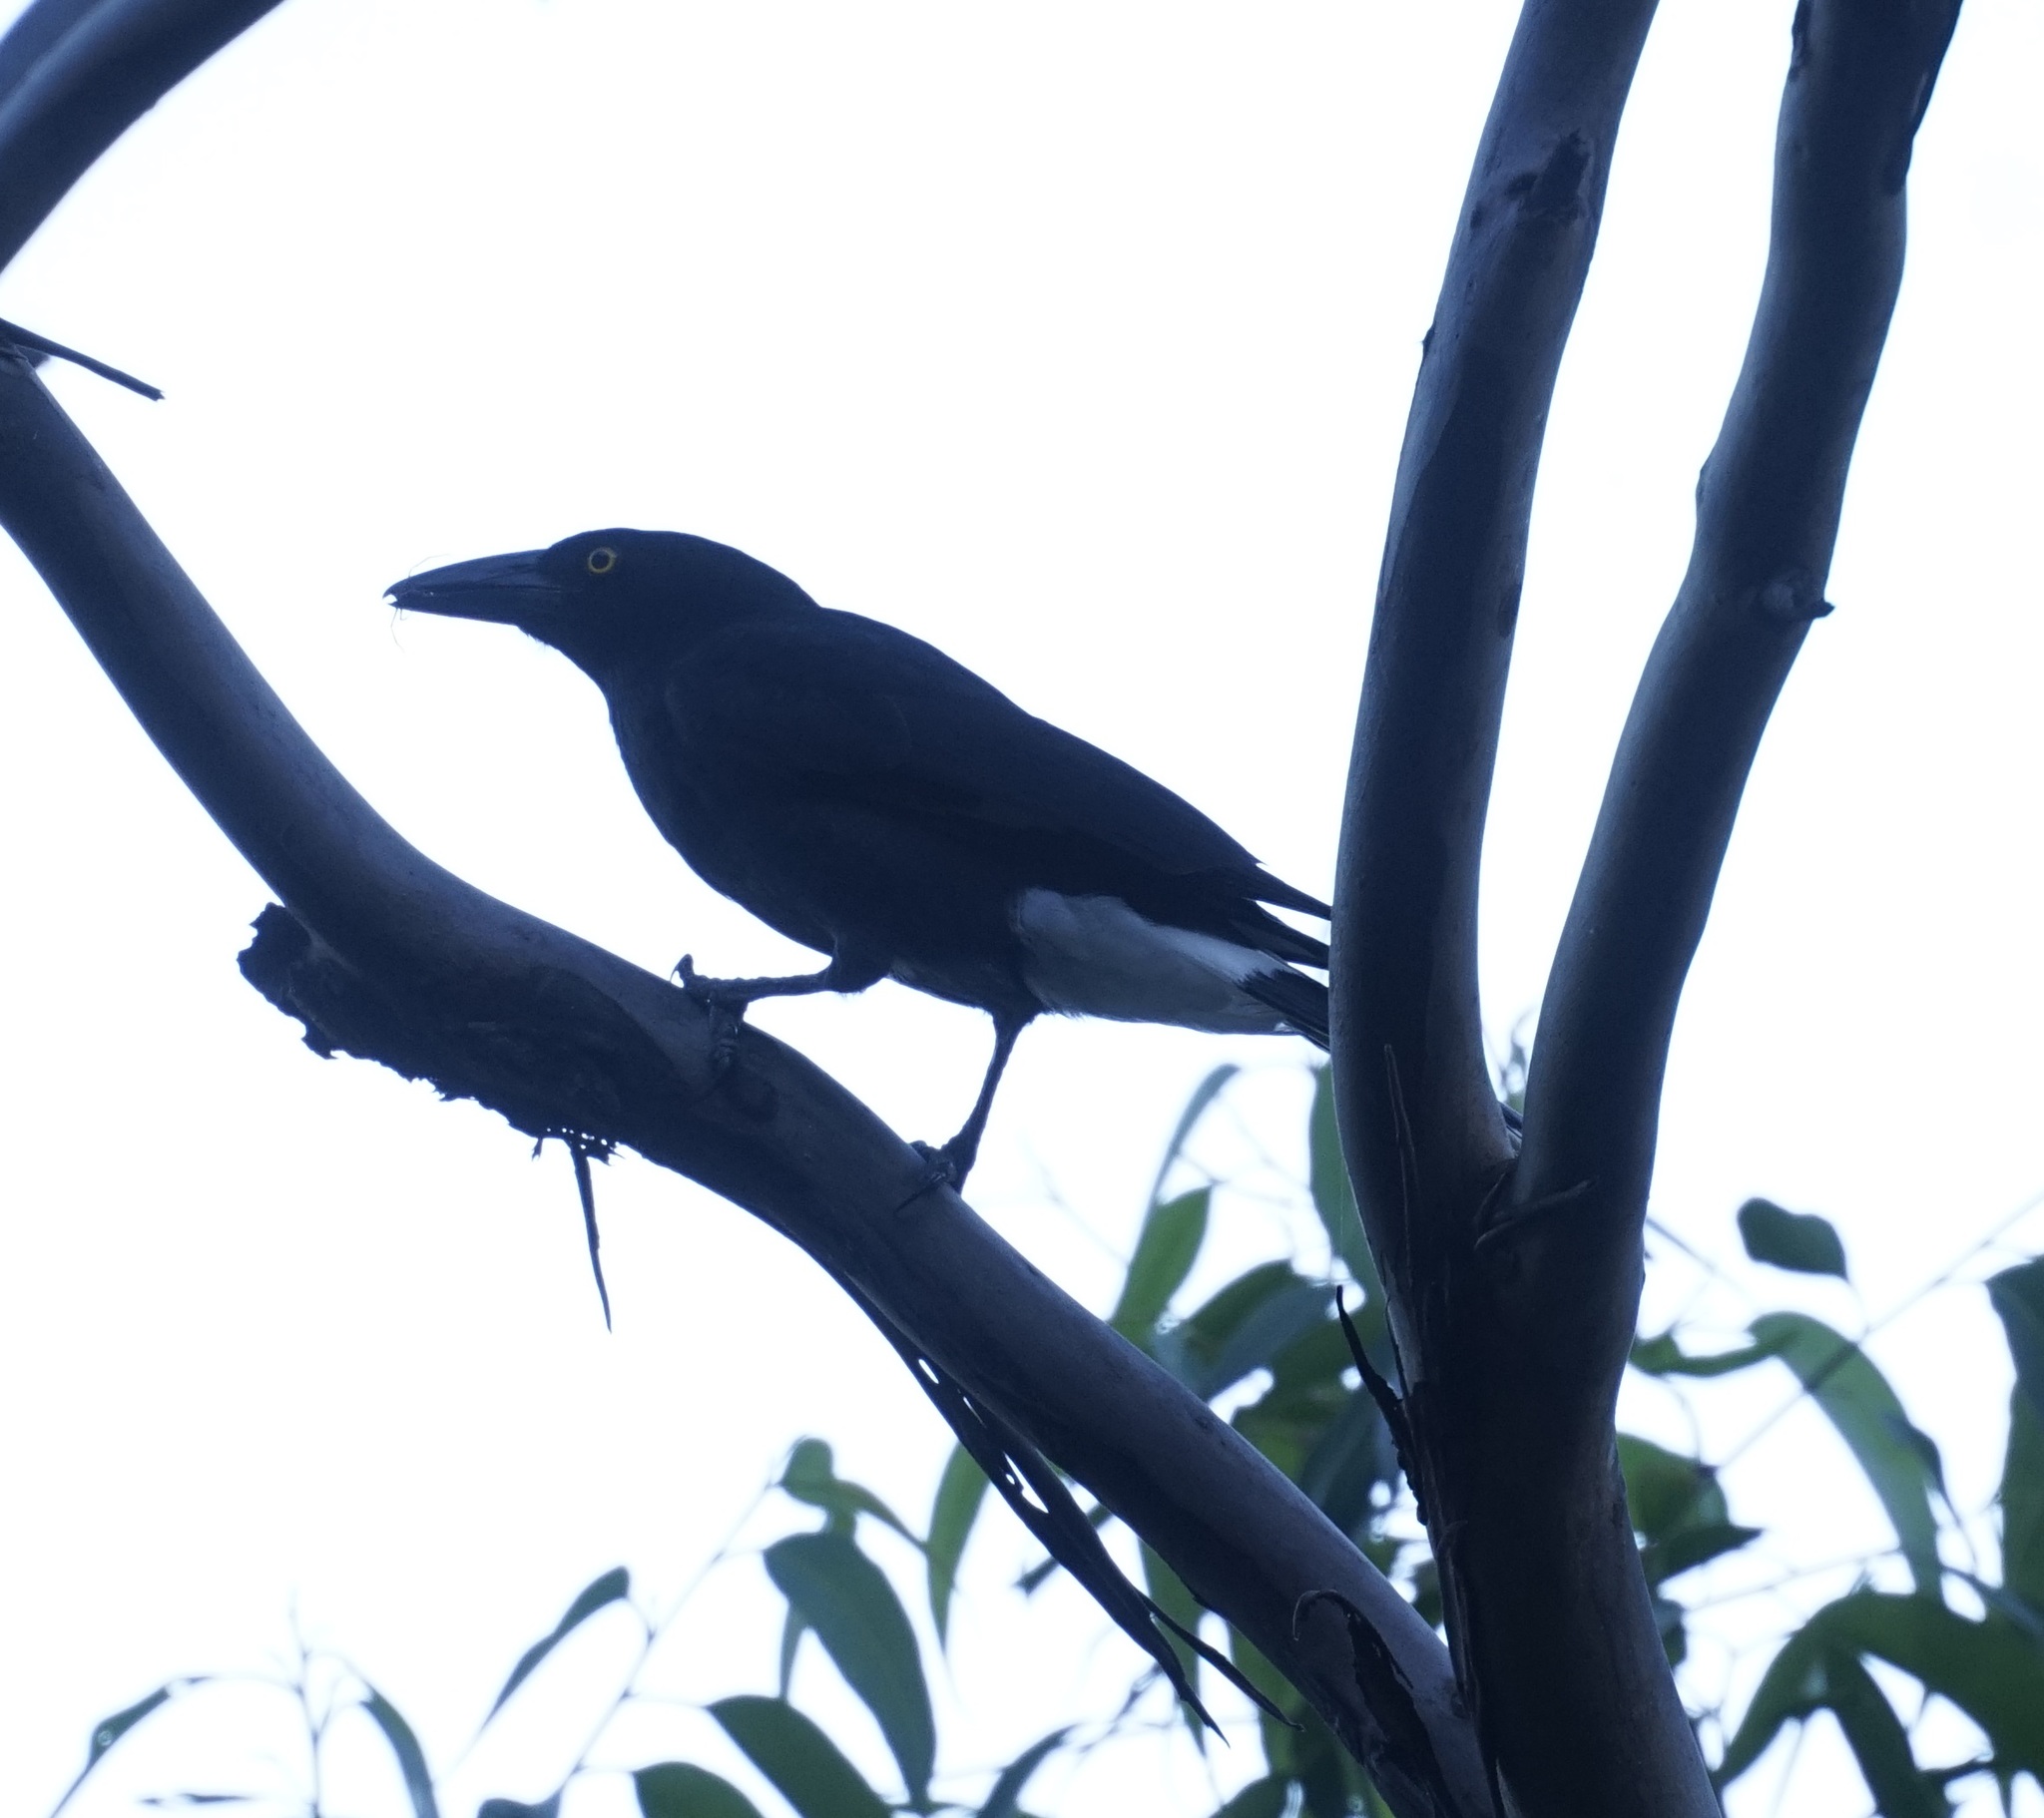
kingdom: Animalia
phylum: Chordata
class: Aves
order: Passeriformes
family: Cracticidae
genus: Strepera
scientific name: Strepera graculina
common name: Pied currawong
